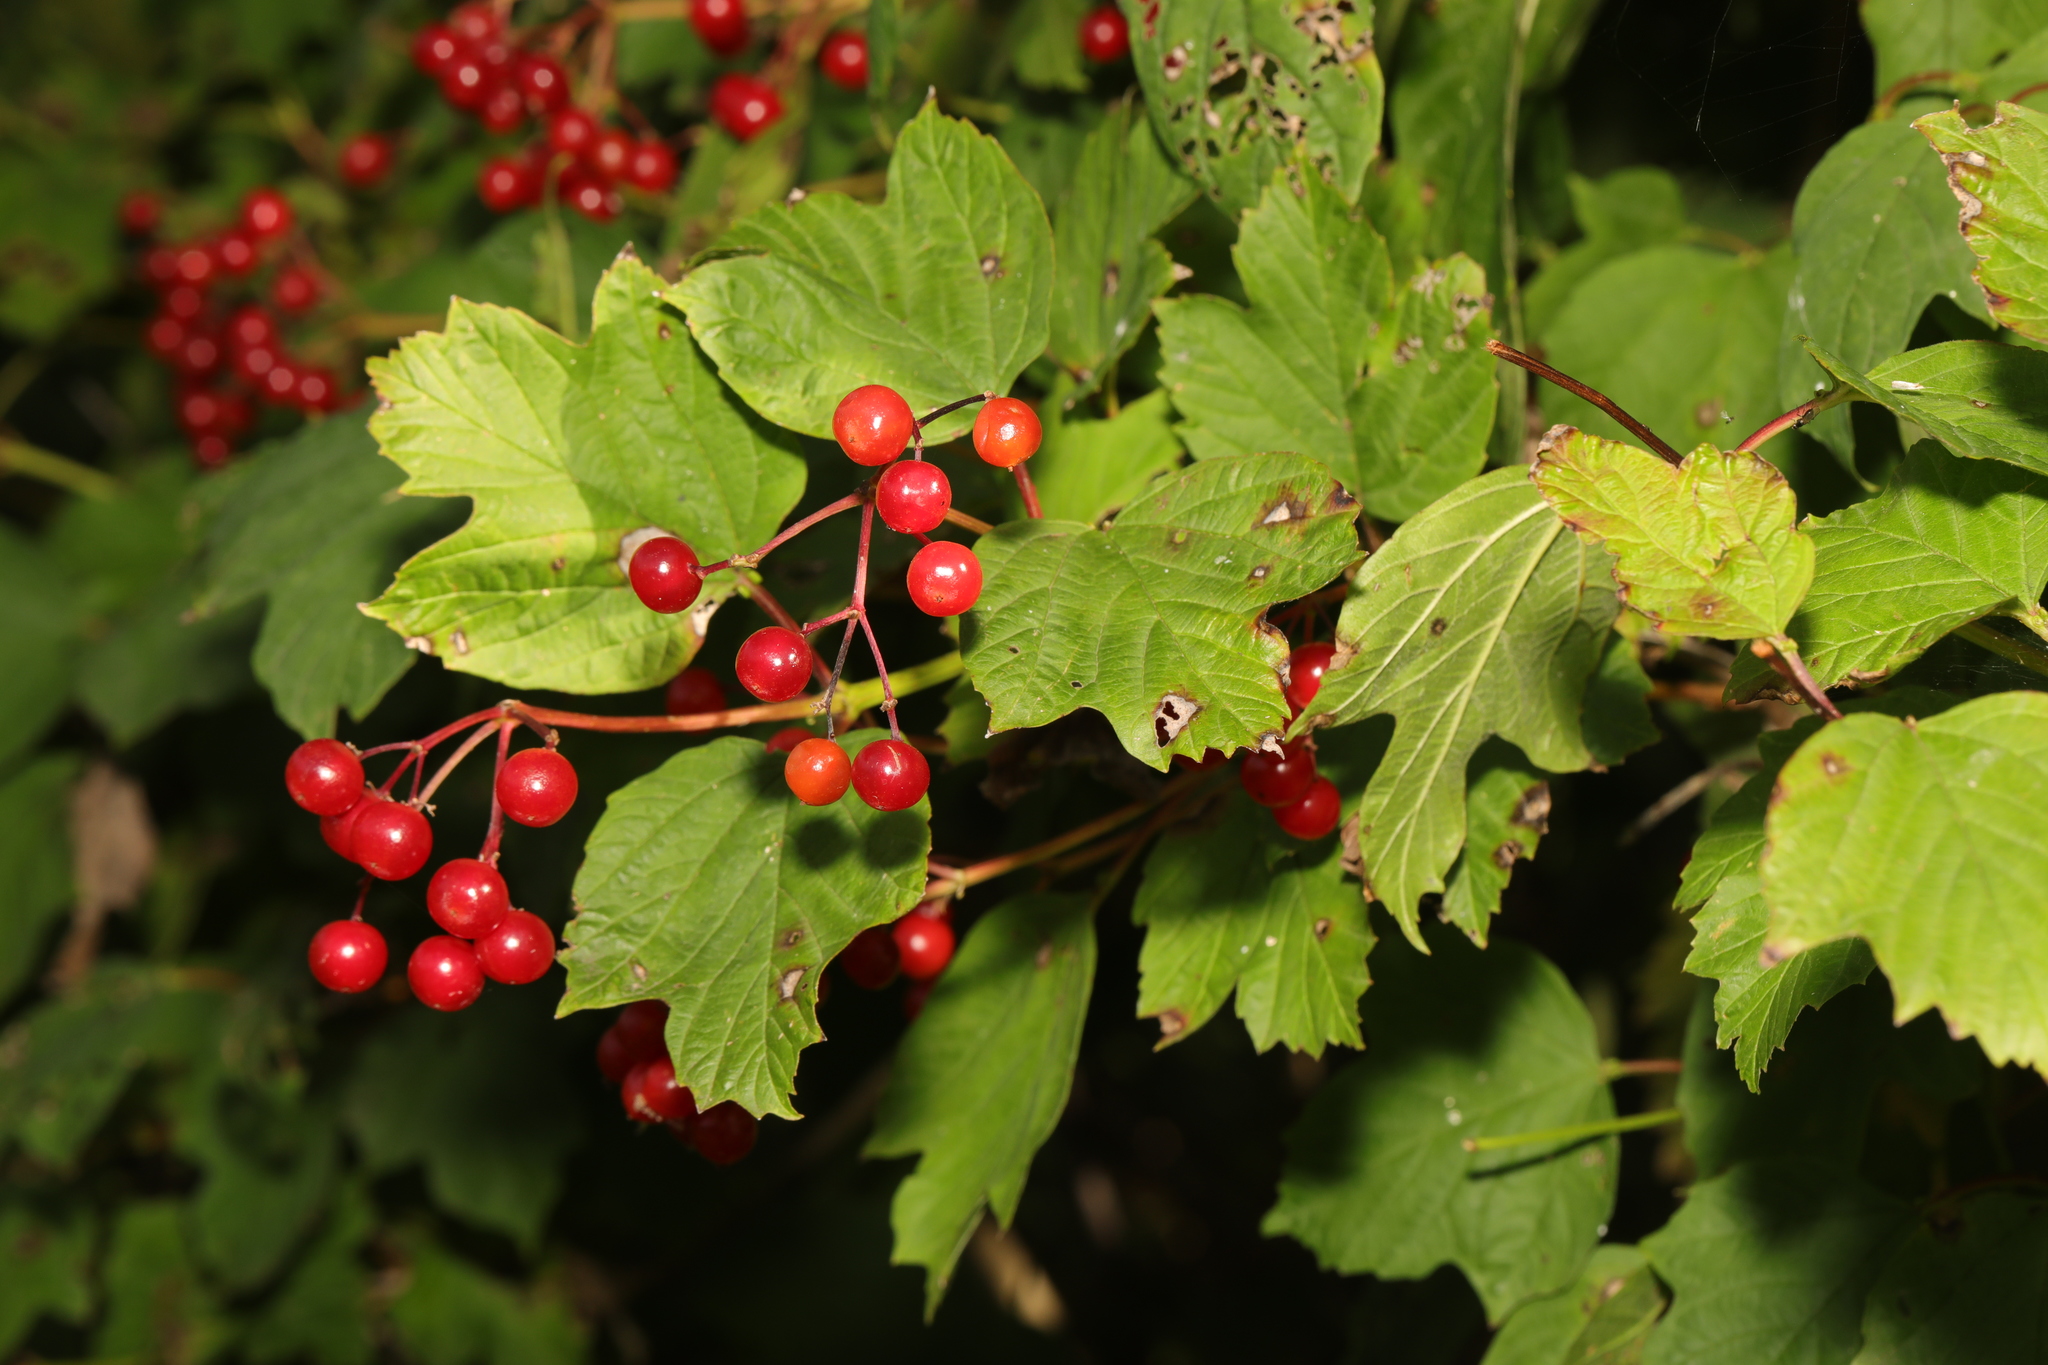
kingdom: Plantae
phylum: Tracheophyta
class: Magnoliopsida
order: Dipsacales
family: Viburnaceae
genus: Viburnum
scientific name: Viburnum opulus
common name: Guelder-rose
